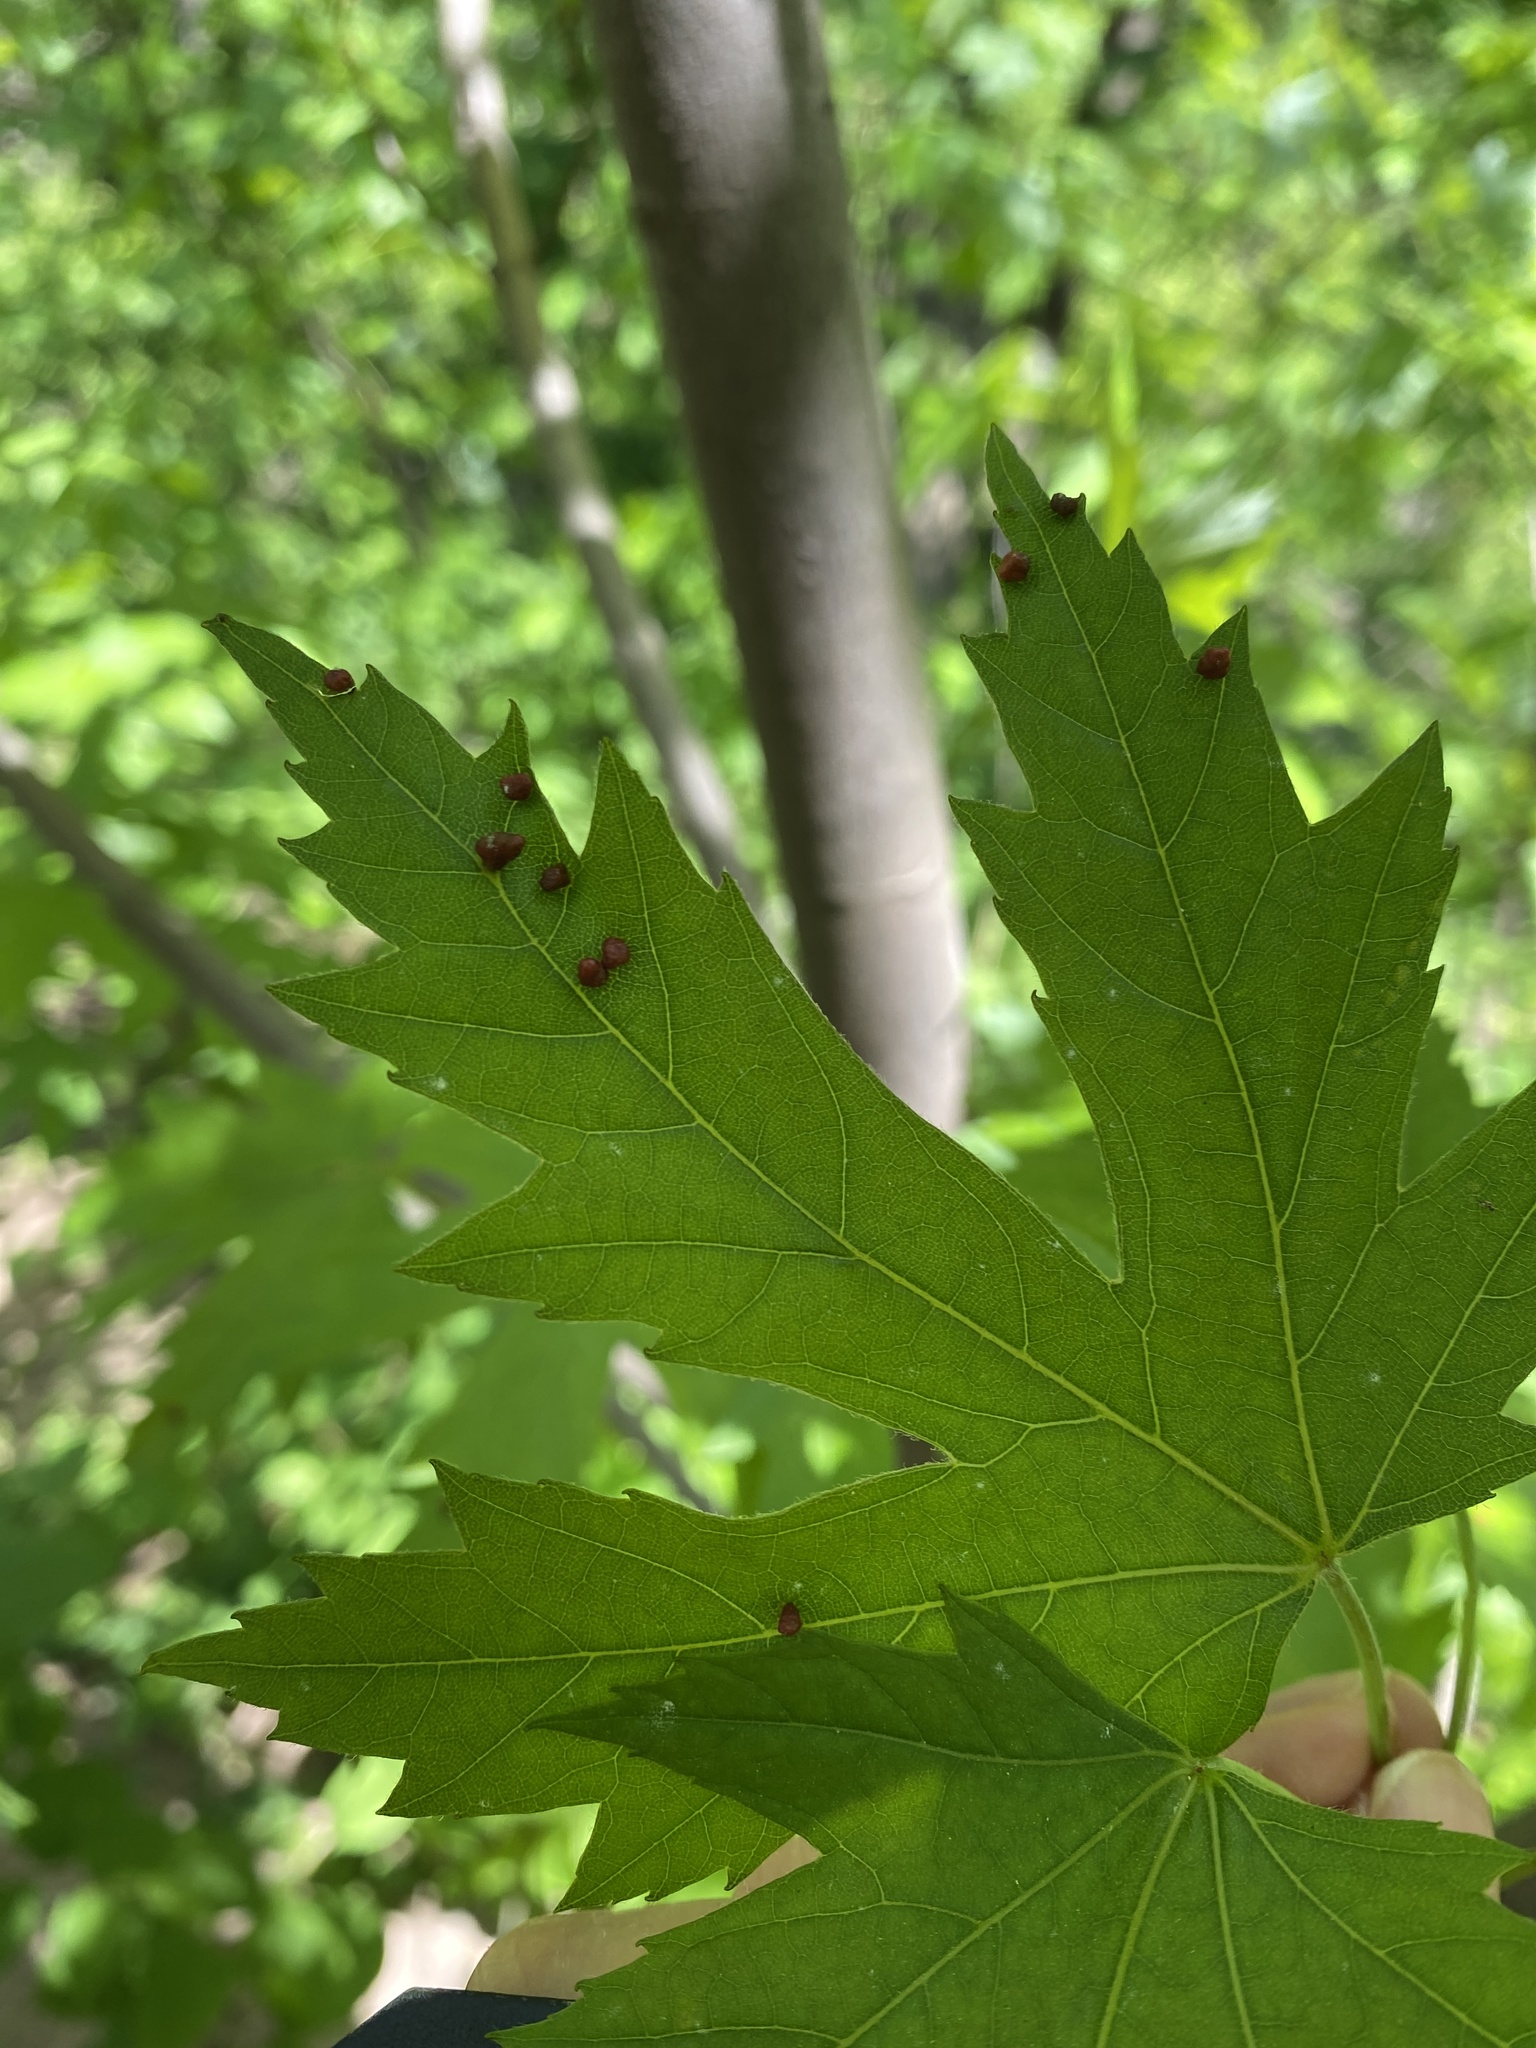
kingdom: Animalia
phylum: Arthropoda
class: Arachnida
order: Trombidiformes
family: Eriophyidae
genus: Vasates
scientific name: Vasates quadripedes
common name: Maple bladder gall mite
